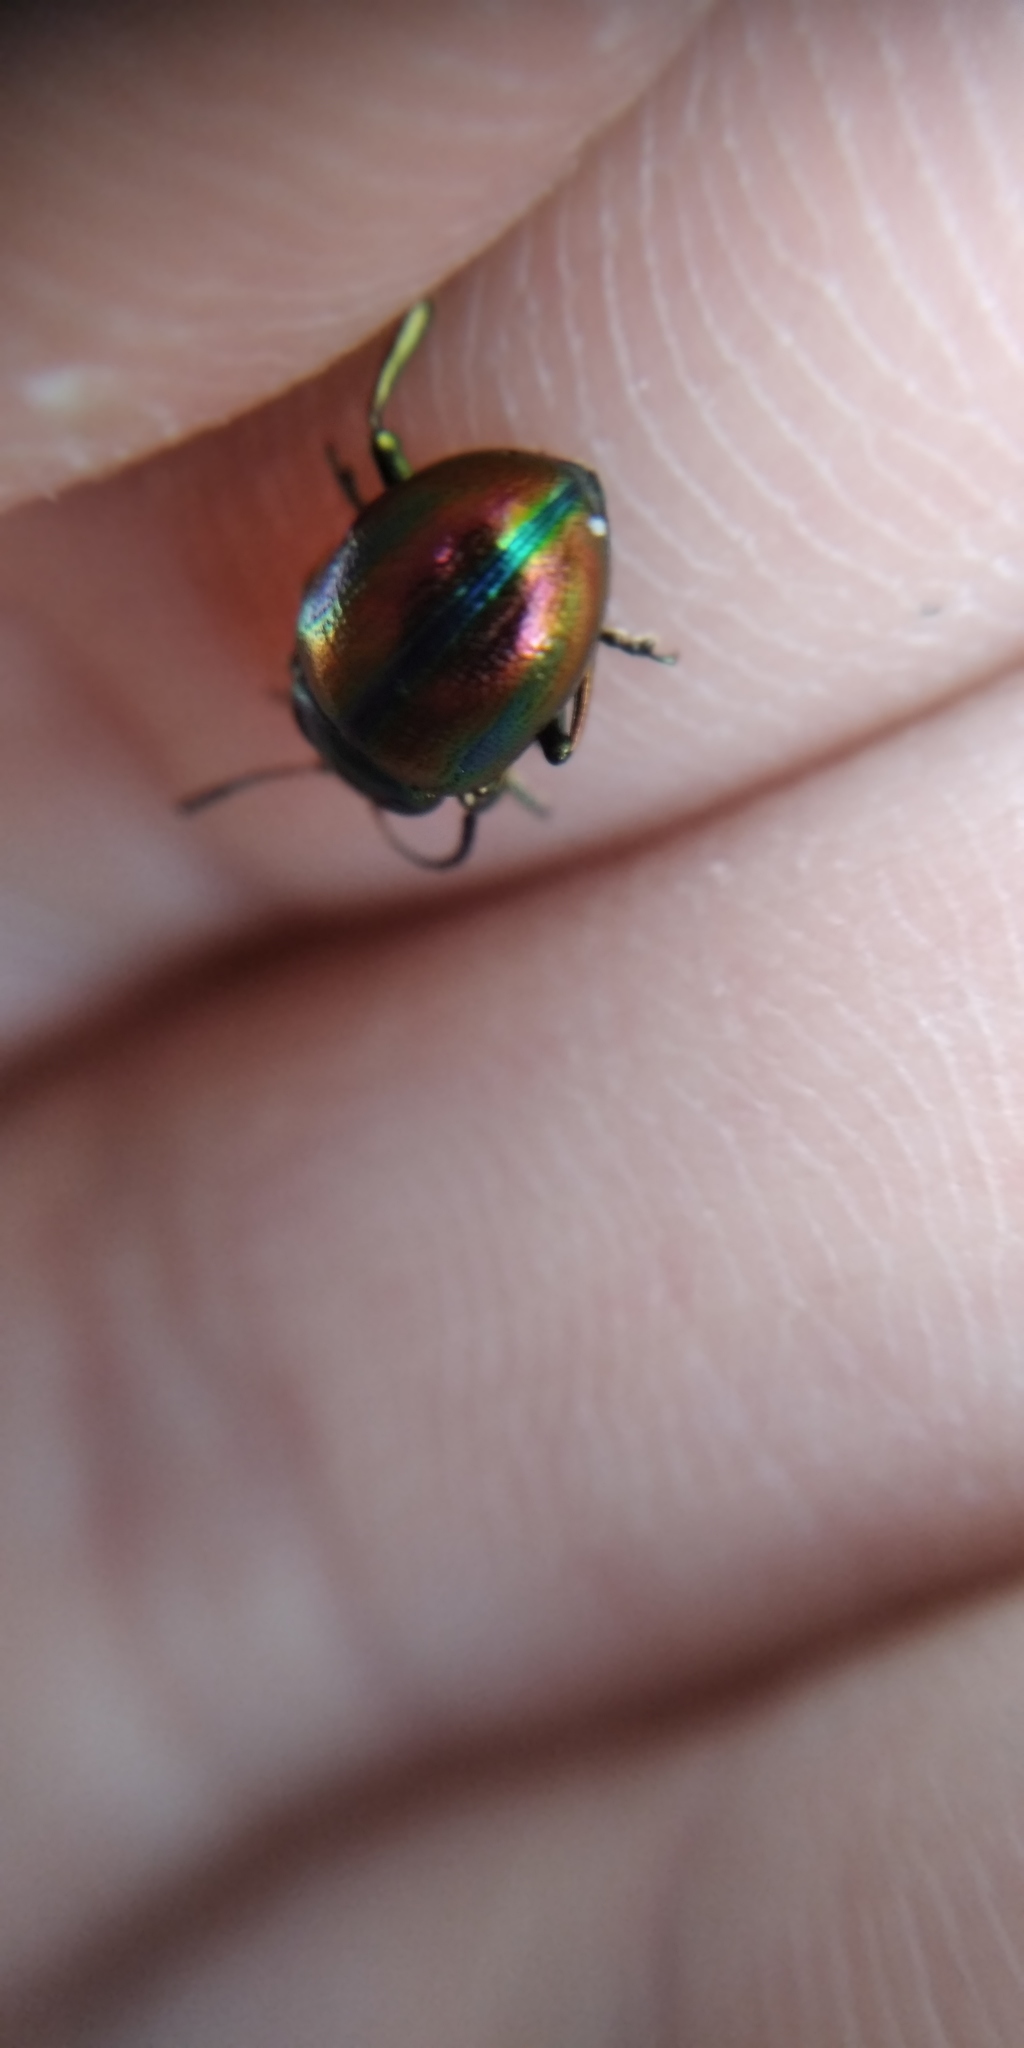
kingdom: Animalia
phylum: Arthropoda
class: Insecta
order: Coleoptera
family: Chrysomelidae
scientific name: Chrysomelidae
